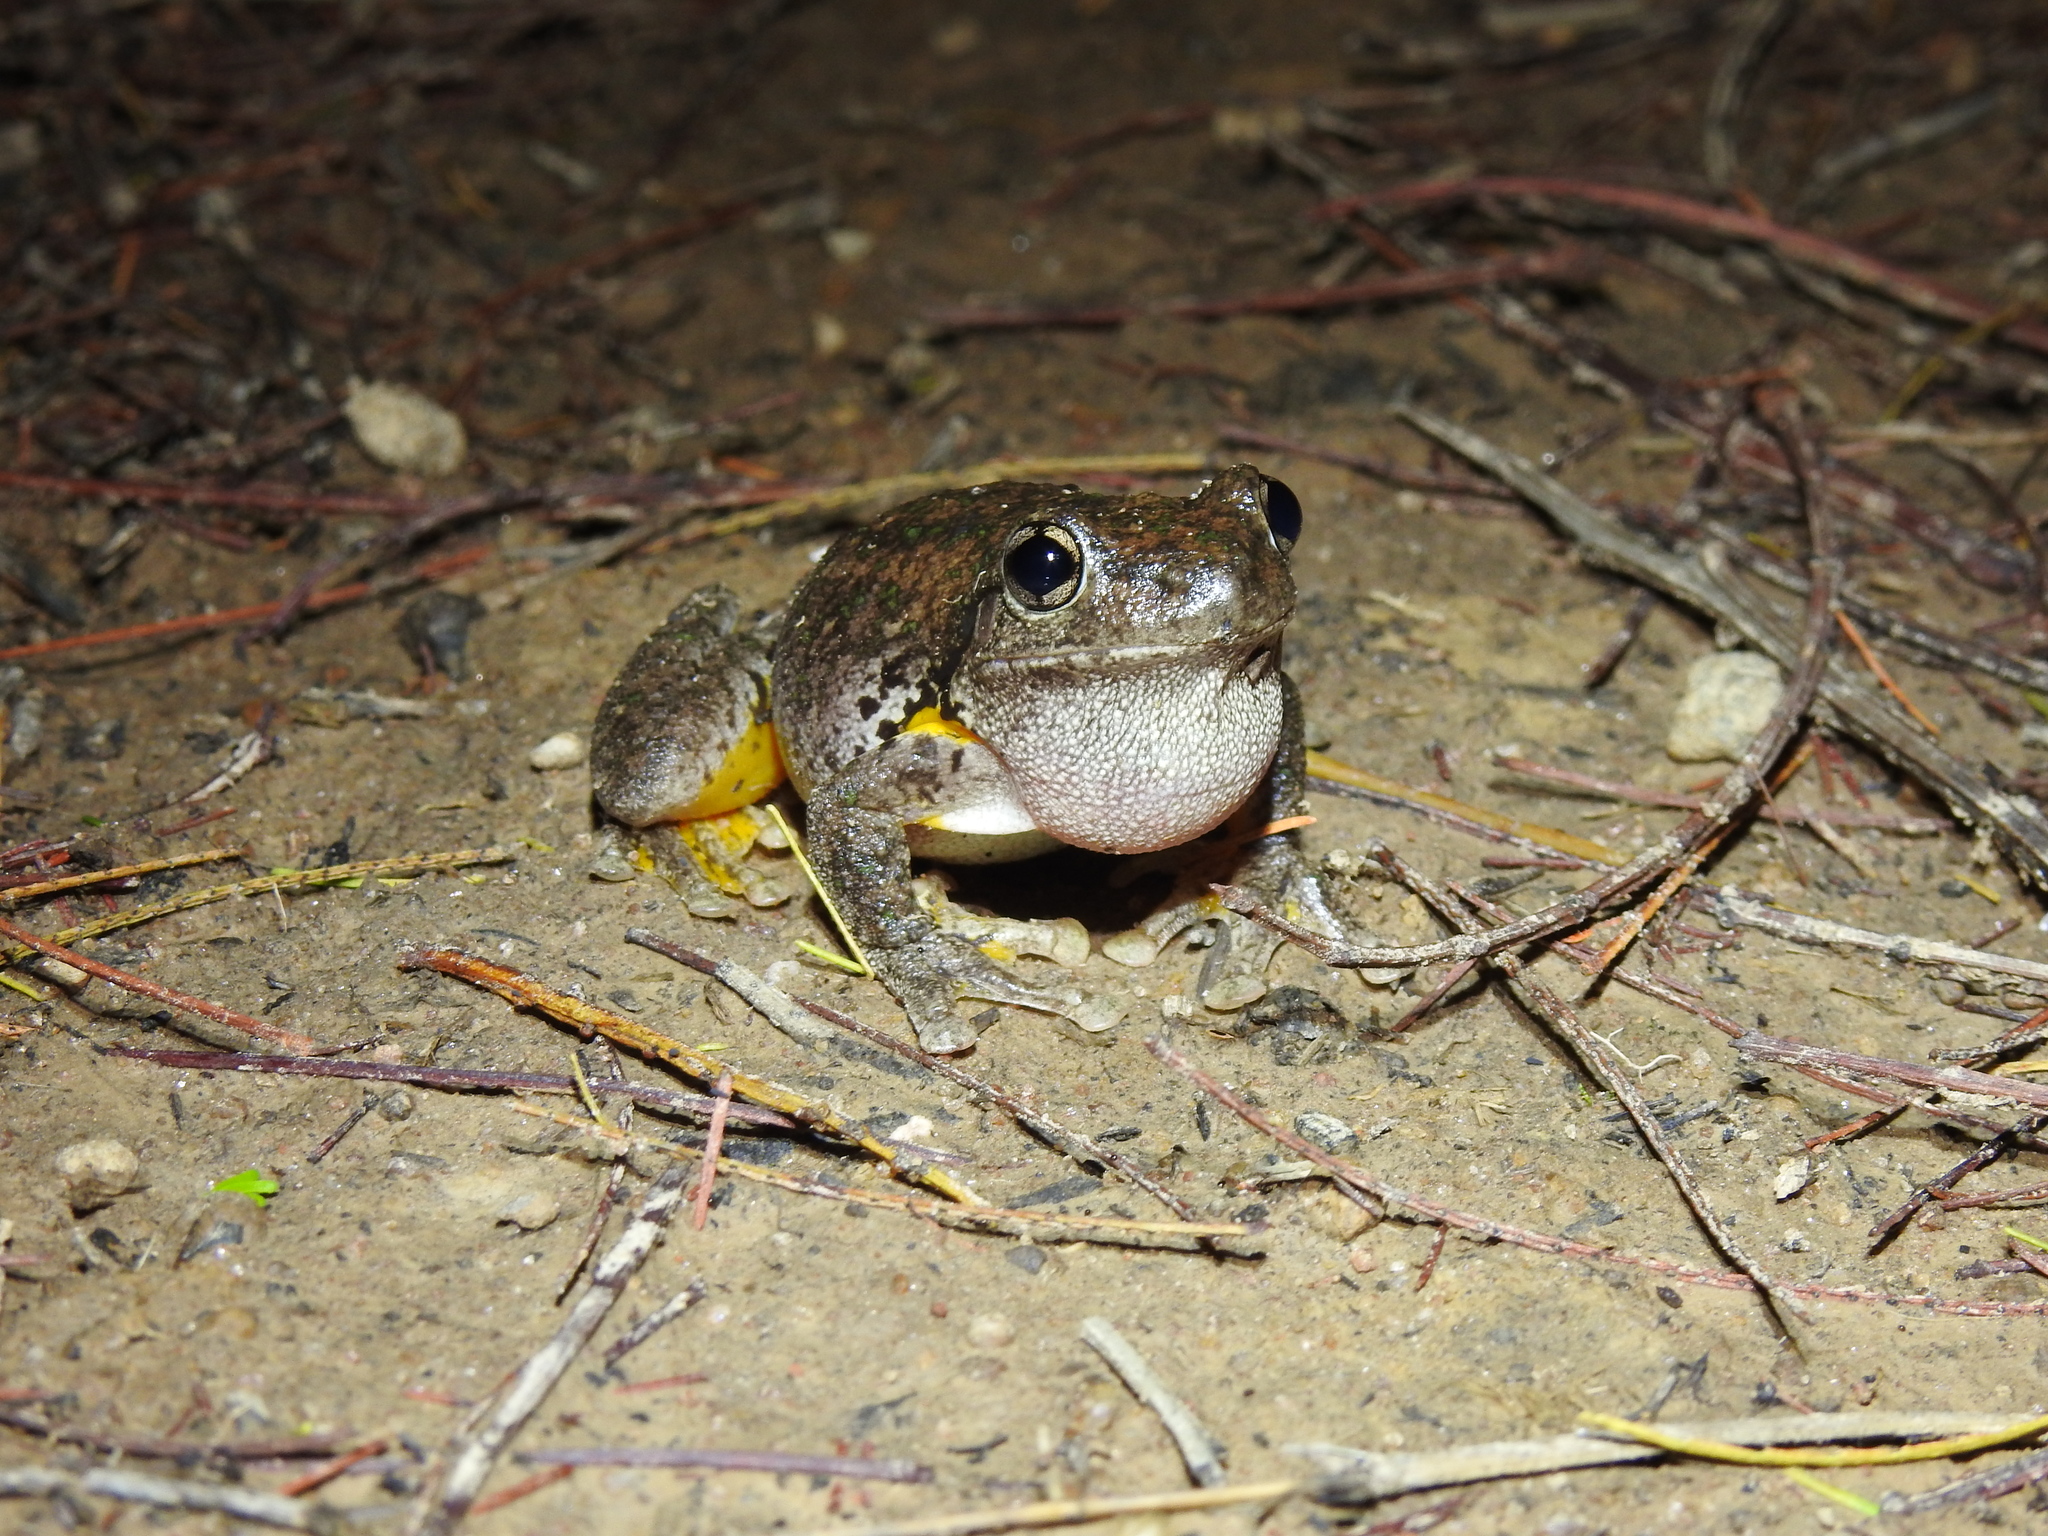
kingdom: Animalia
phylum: Chordata
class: Amphibia
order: Anura
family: Pelodryadidae
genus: Litoria
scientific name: Litoria peronii
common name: Emerald spotted treefrog
